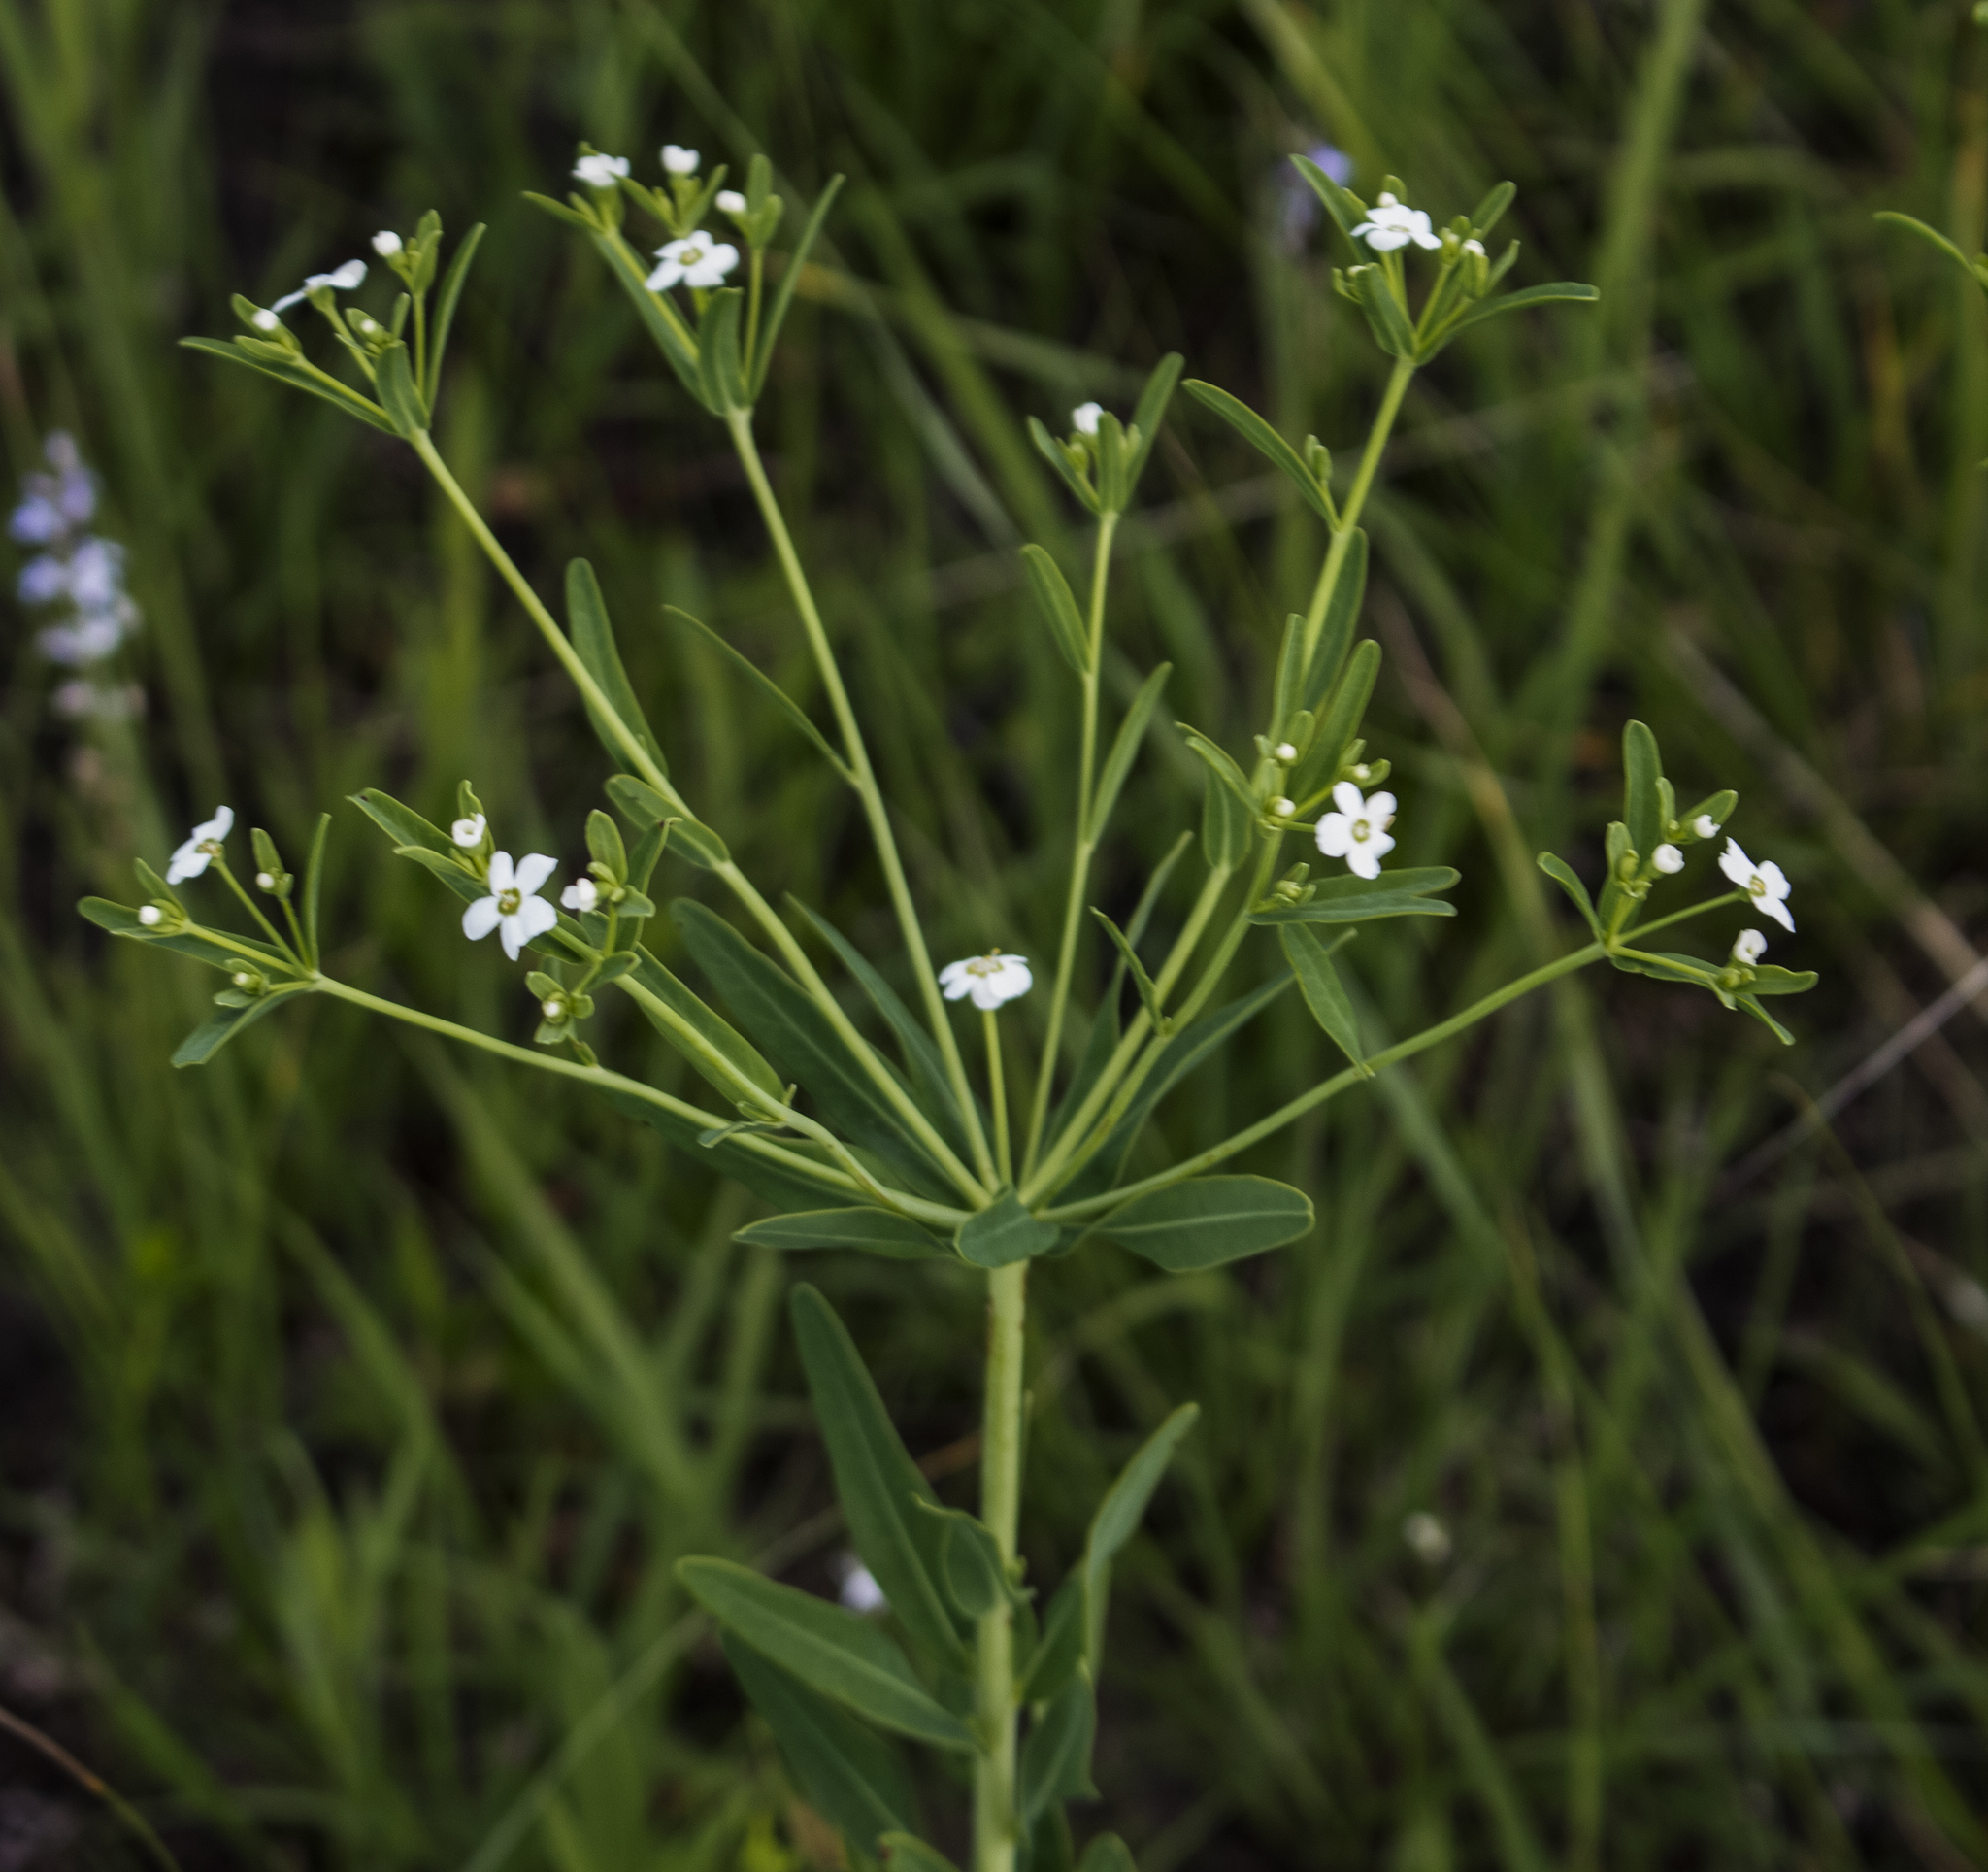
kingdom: Plantae
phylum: Tracheophyta
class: Magnoliopsida
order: Malpighiales
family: Euphorbiaceae
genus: Euphorbia
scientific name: Euphorbia corollata
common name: Flowering spurge
